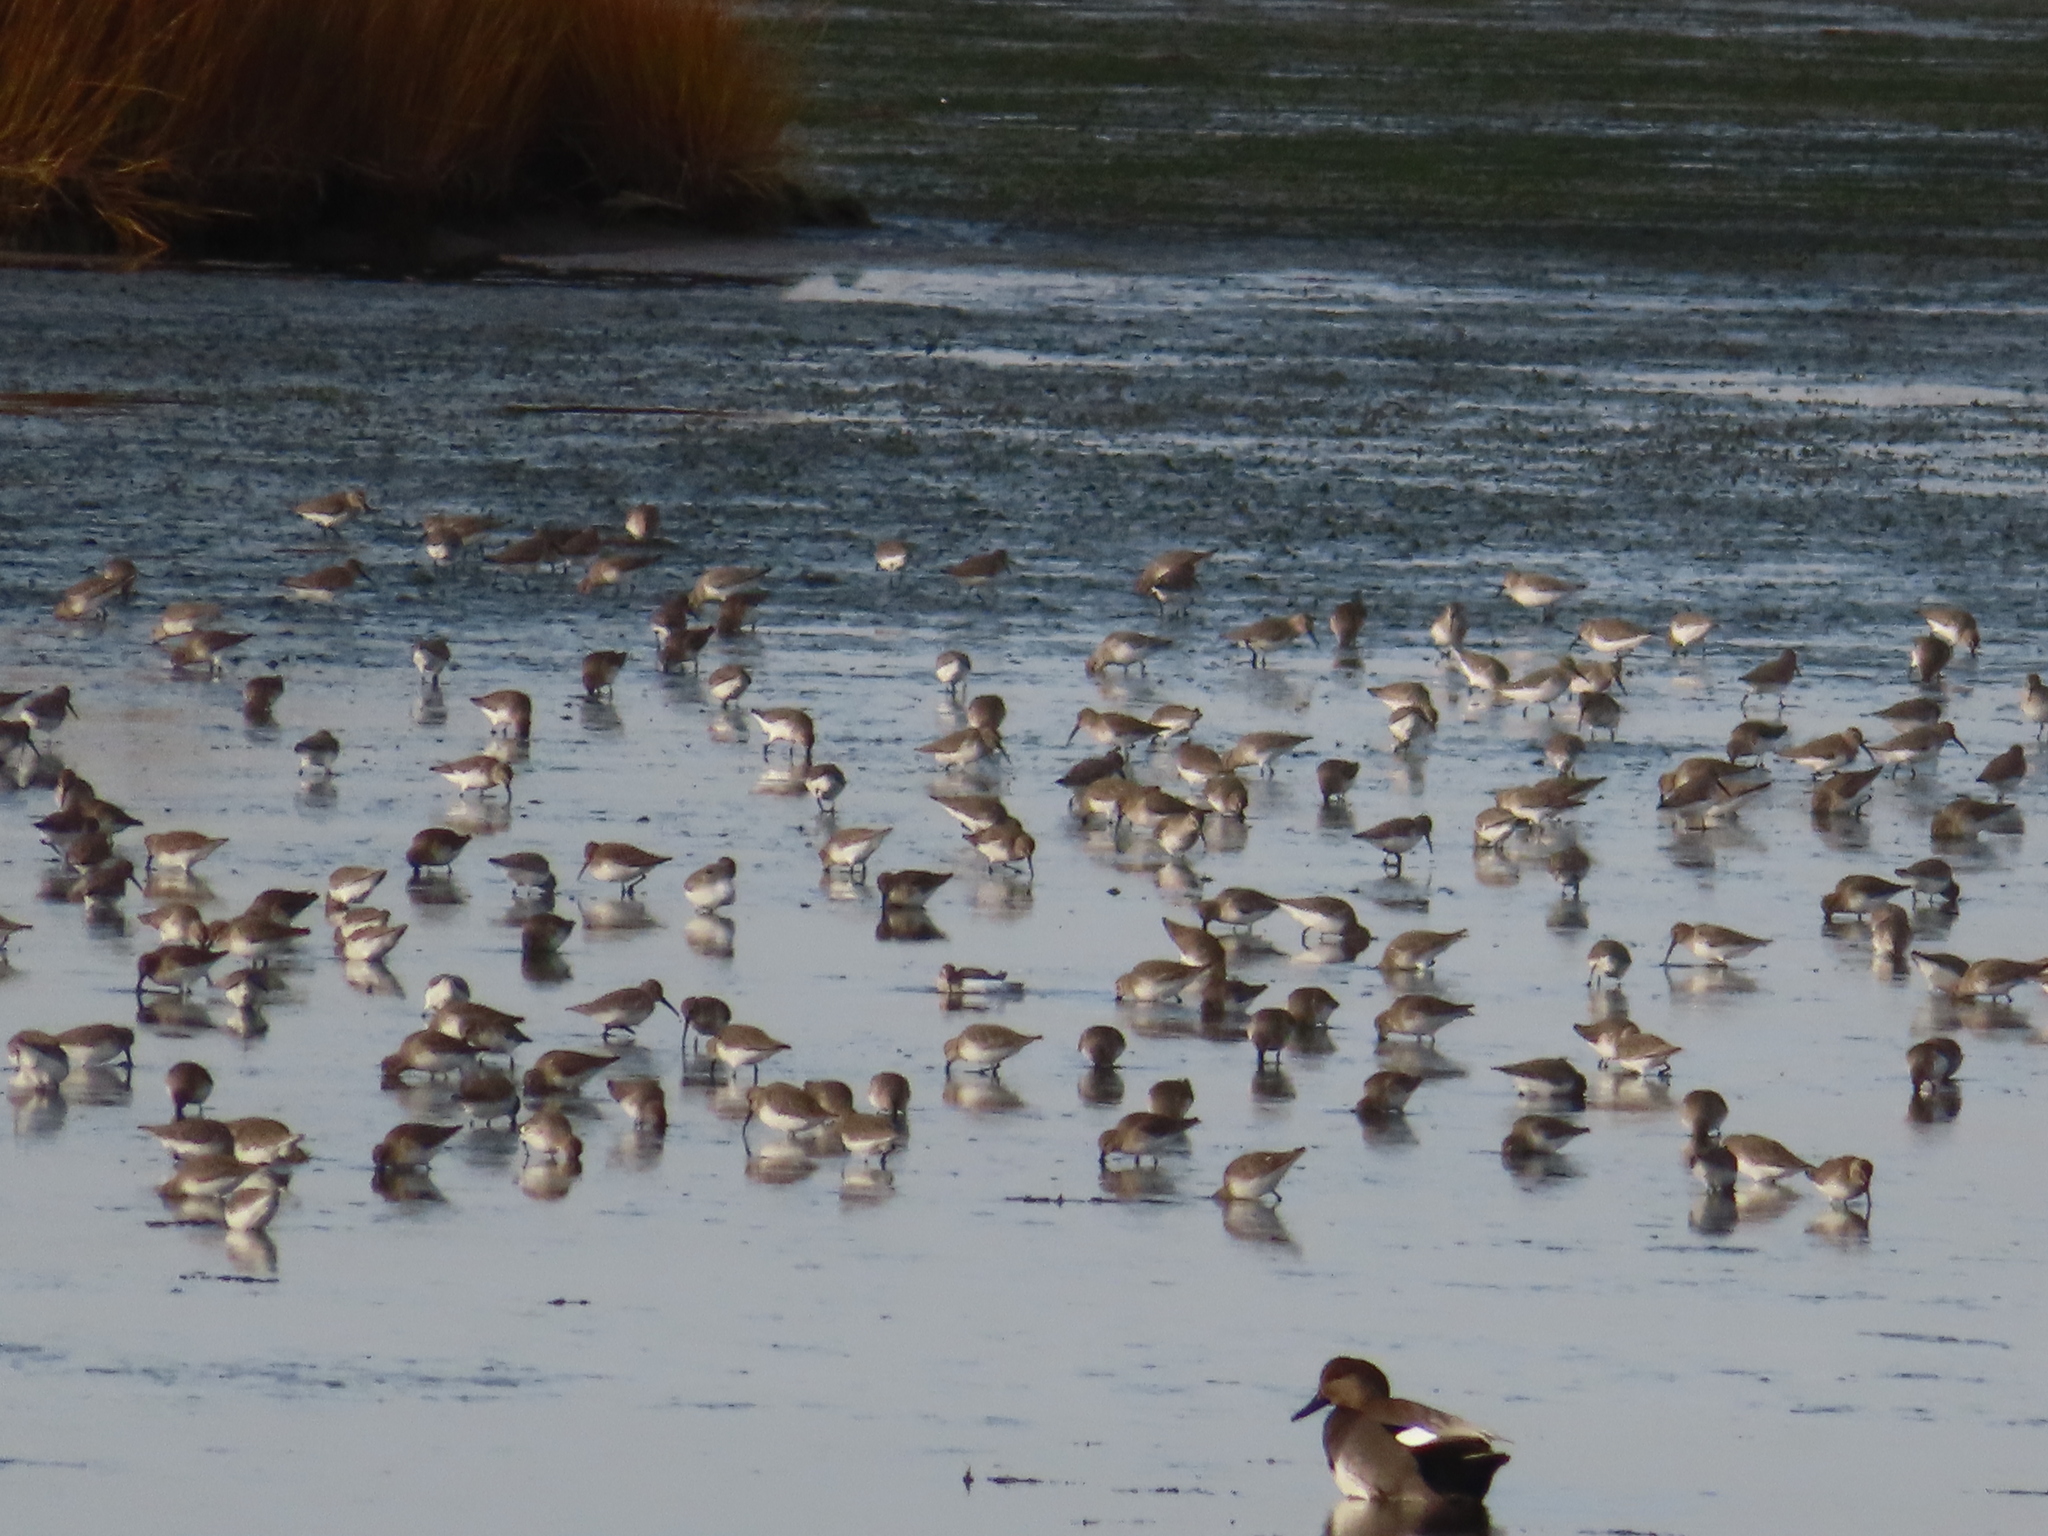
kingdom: Animalia
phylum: Chordata
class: Aves
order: Anseriformes
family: Anatidae
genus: Mareca
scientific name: Mareca strepera
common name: Gadwall
